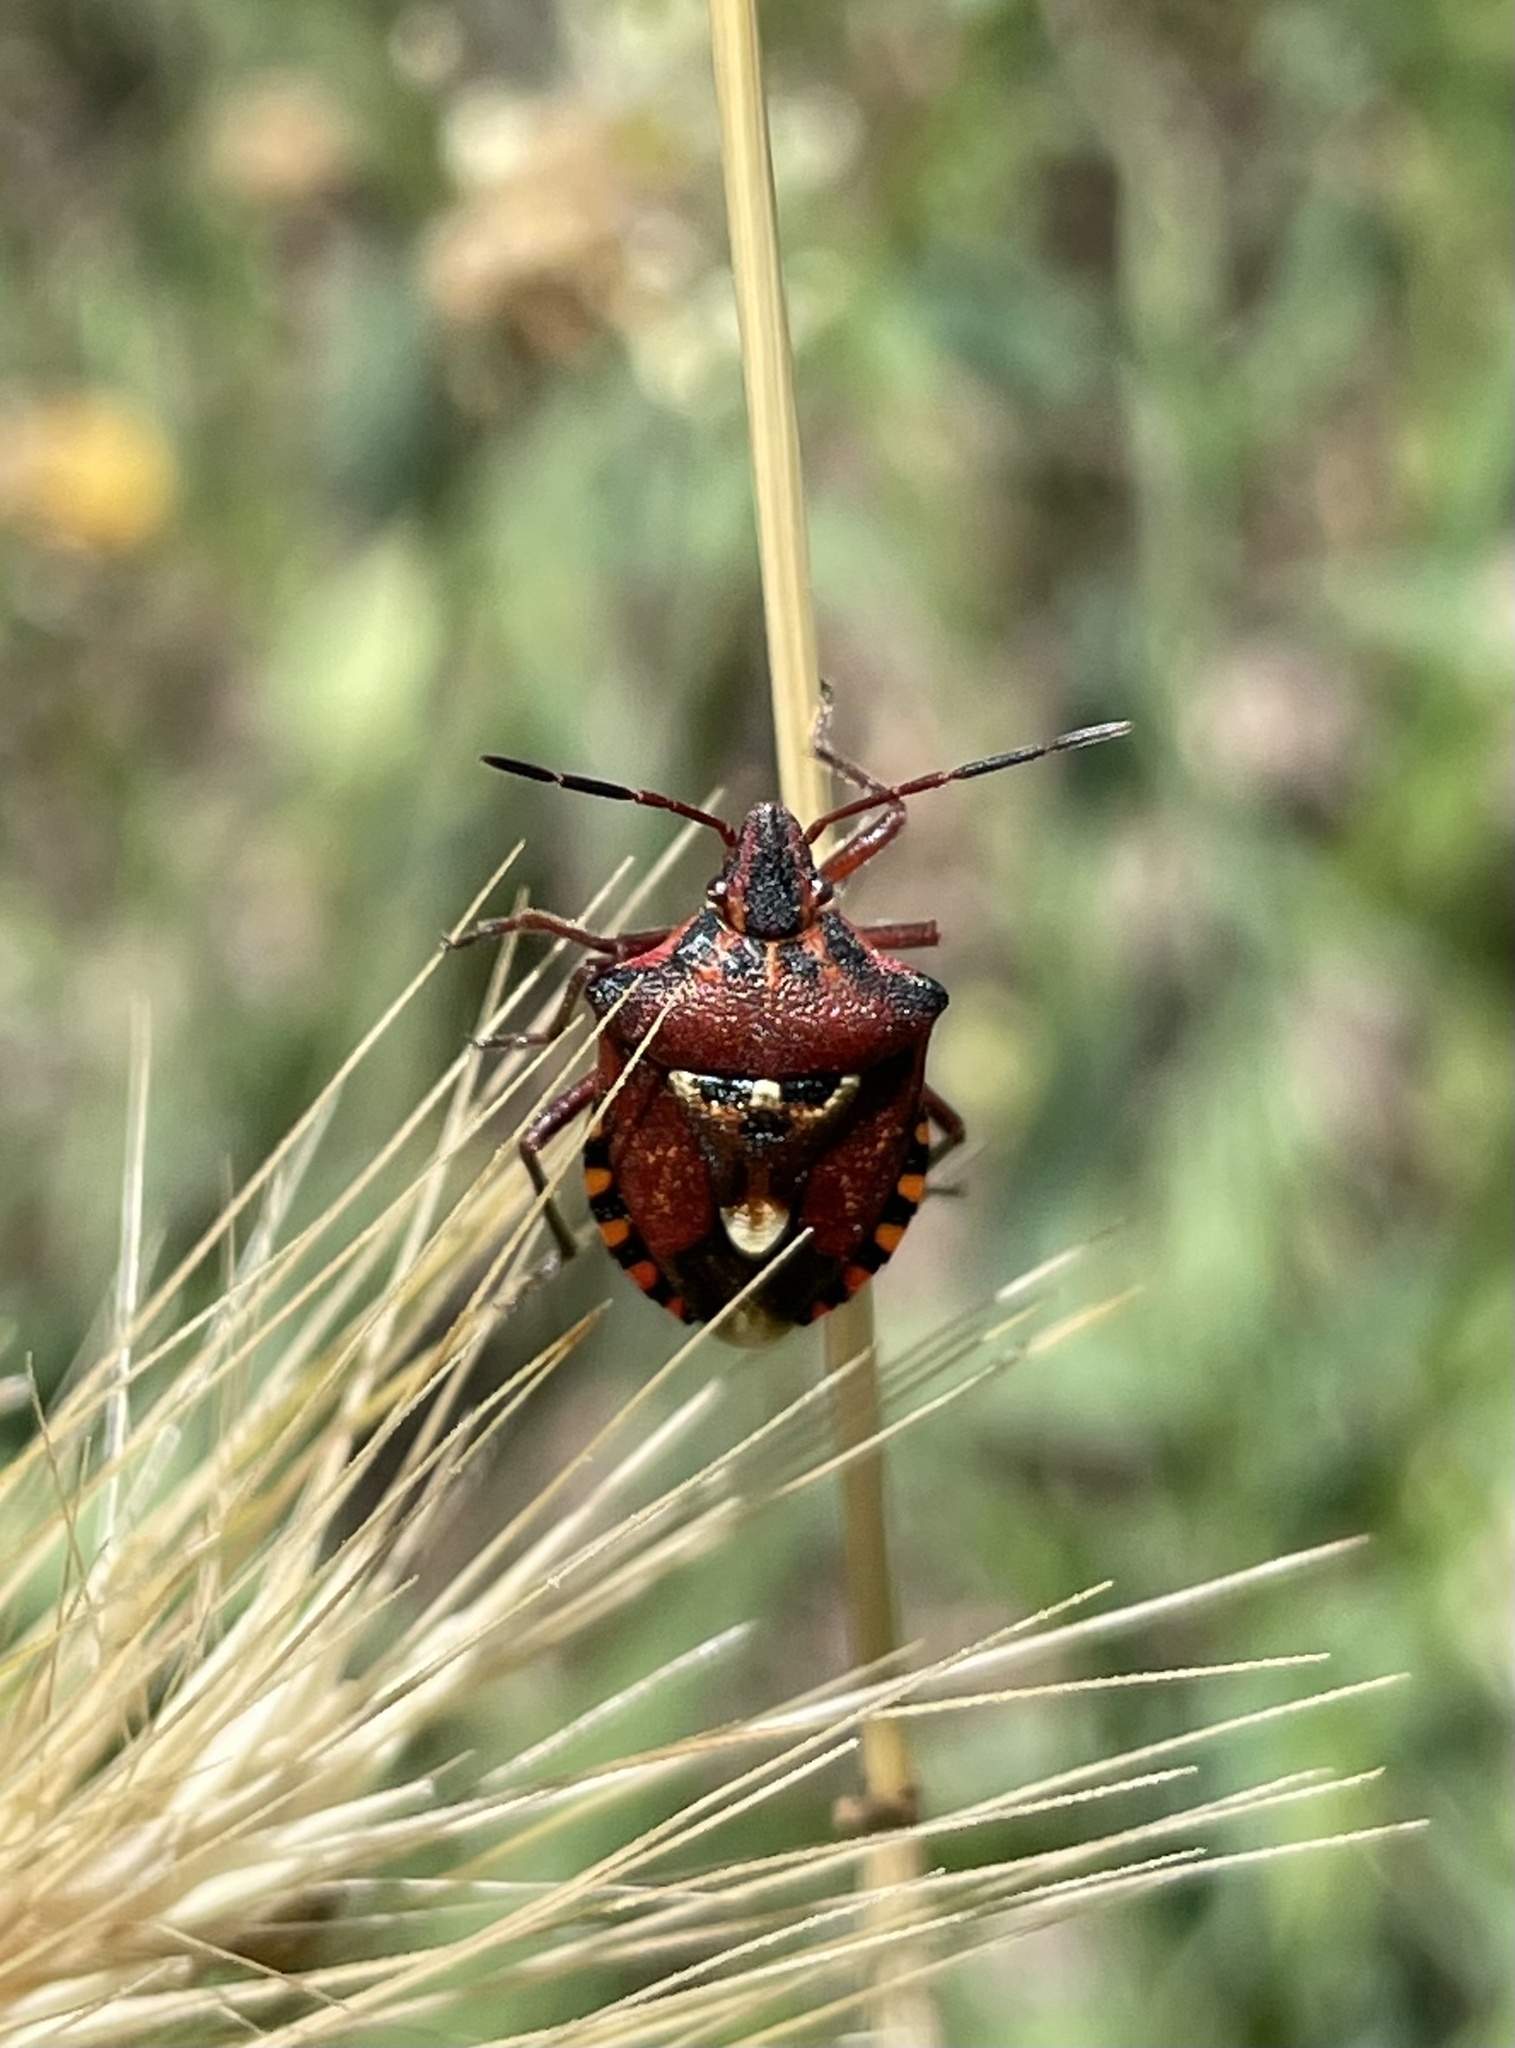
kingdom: Animalia
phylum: Arthropoda
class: Insecta
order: Hemiptera
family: Miridae
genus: Orthops
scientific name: Orthops kalmii
